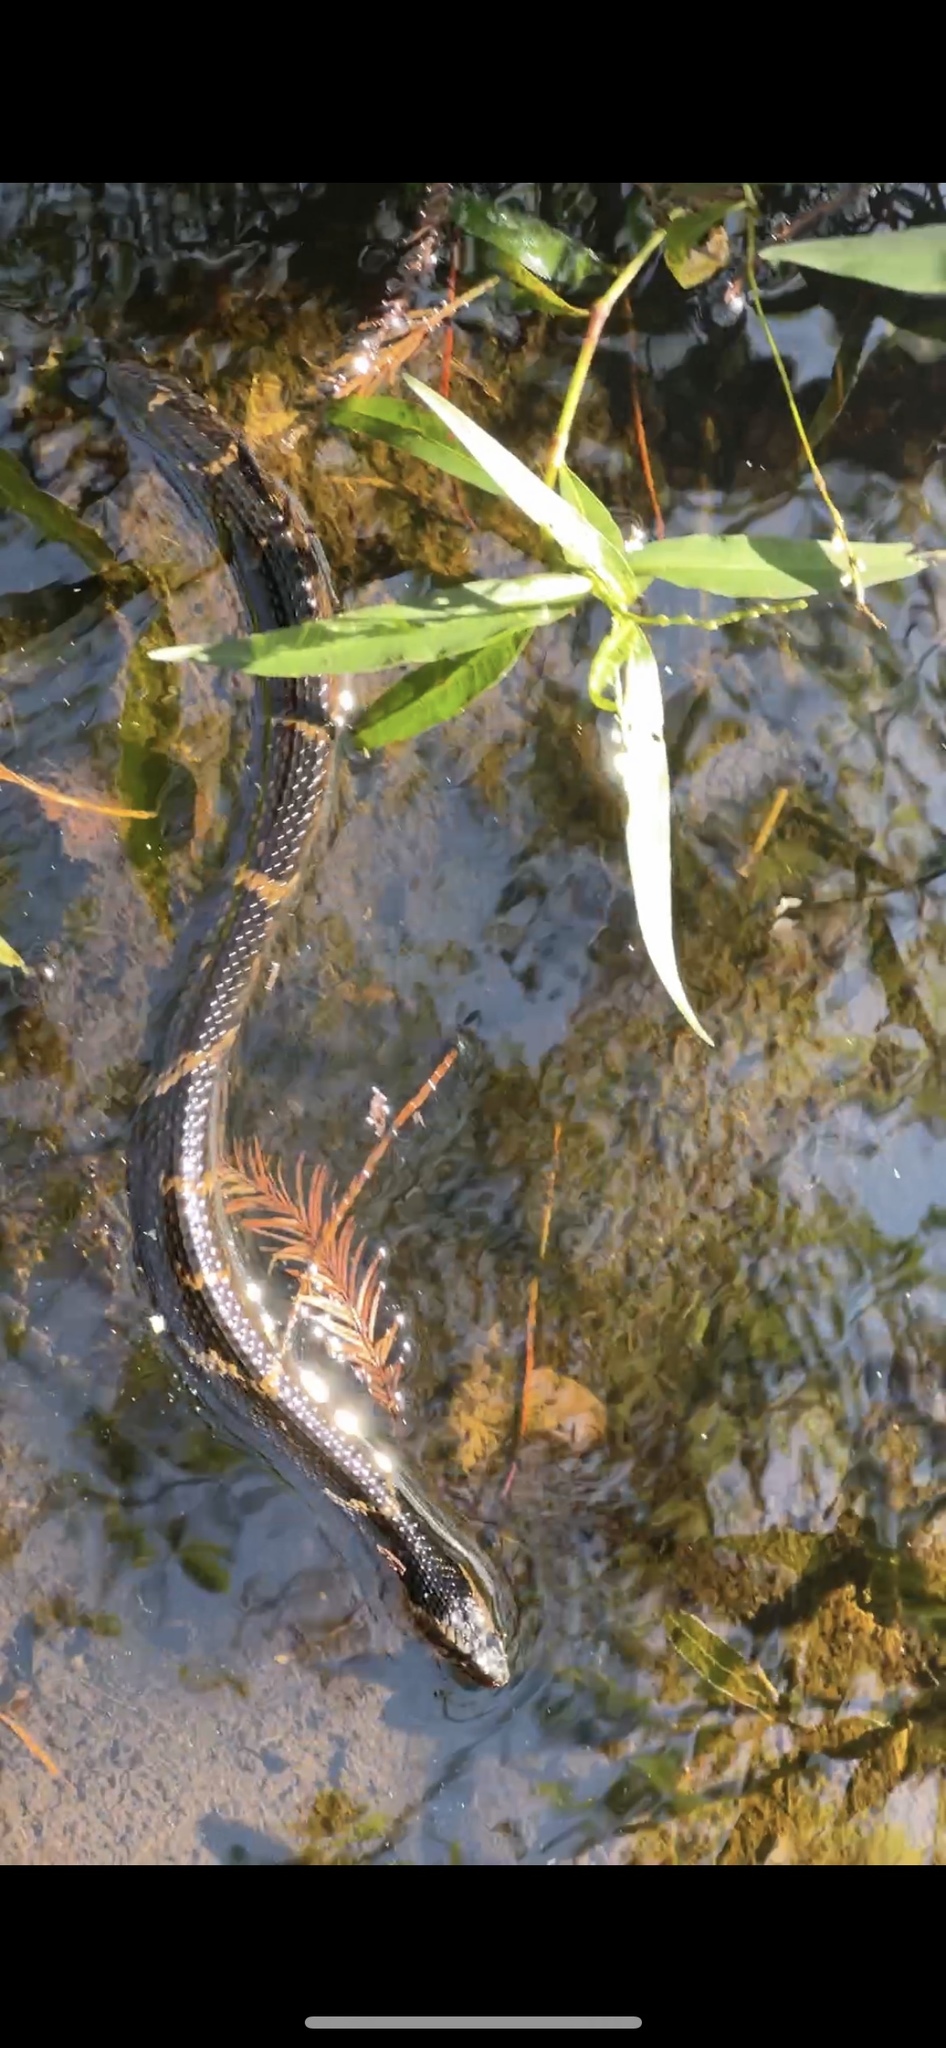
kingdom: Animalia
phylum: Chordata
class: Squamata
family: Colubridae
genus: Nerodia
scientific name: Nerodia fasciata
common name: Southern water snake
